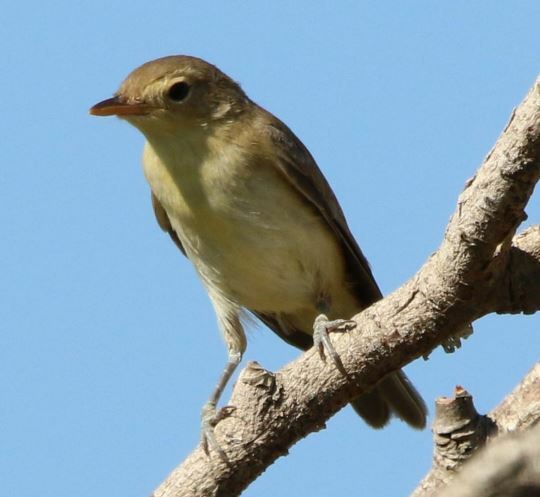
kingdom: Animalia
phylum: Chordata
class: Aves
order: Passeriformes
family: Acrocephalidae
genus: Hippolais
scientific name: Hippolais polyglotta
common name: Melodious warbler
